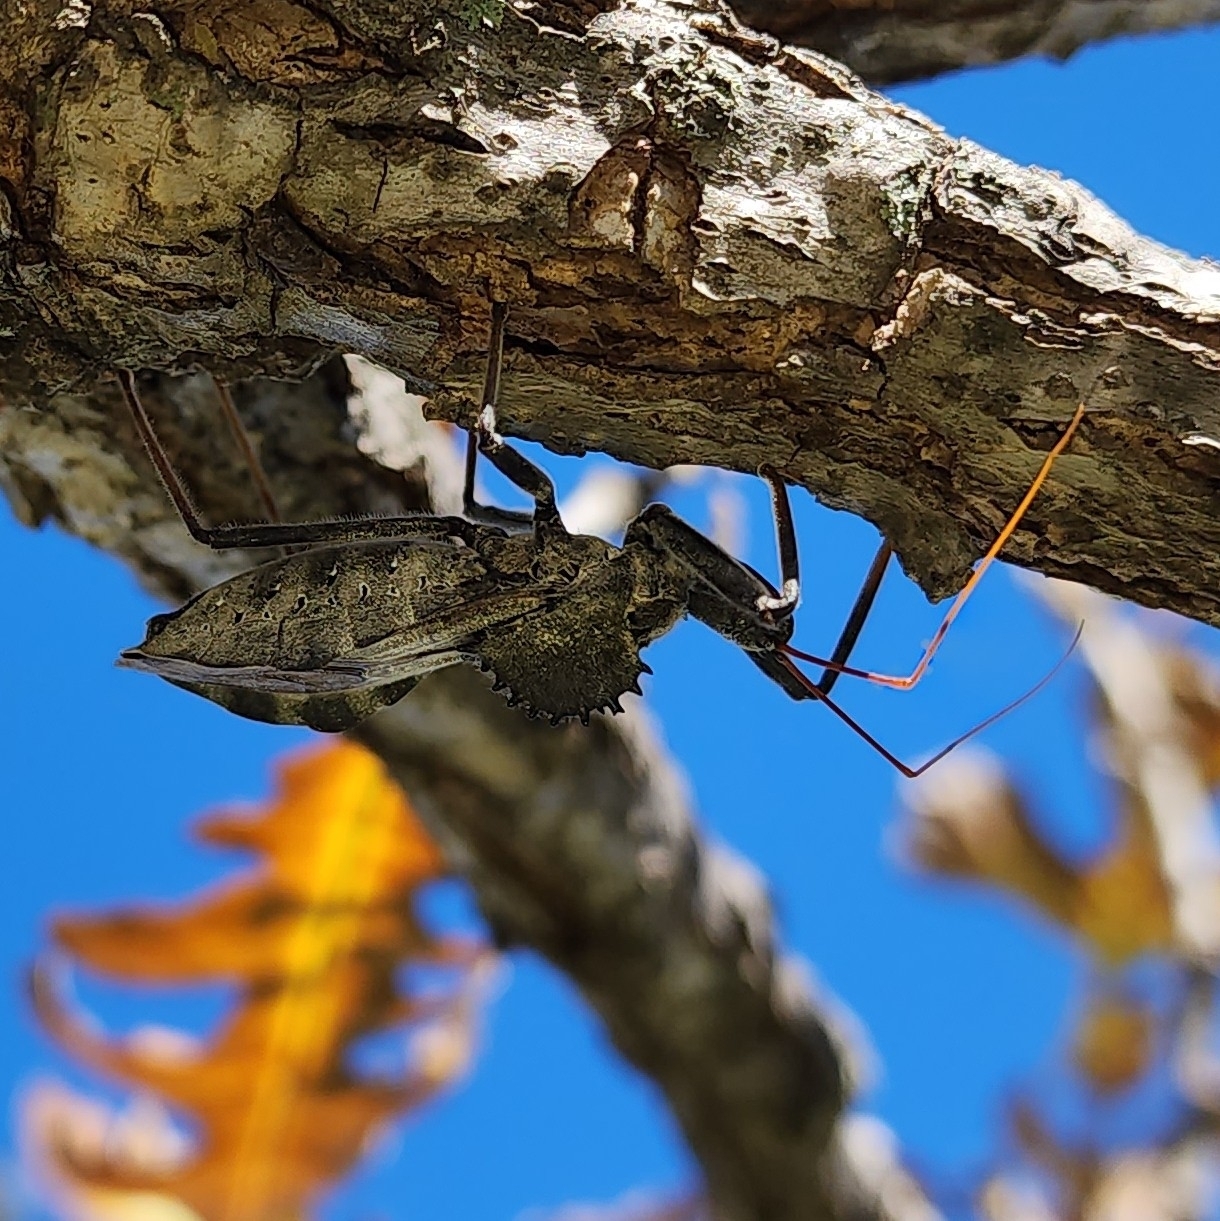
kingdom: Animalia
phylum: Arthropoda
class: Insecta
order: Hemiptera
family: Reduviidae
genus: Arilus
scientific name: Arilus cristatus
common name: North american wheel bug
